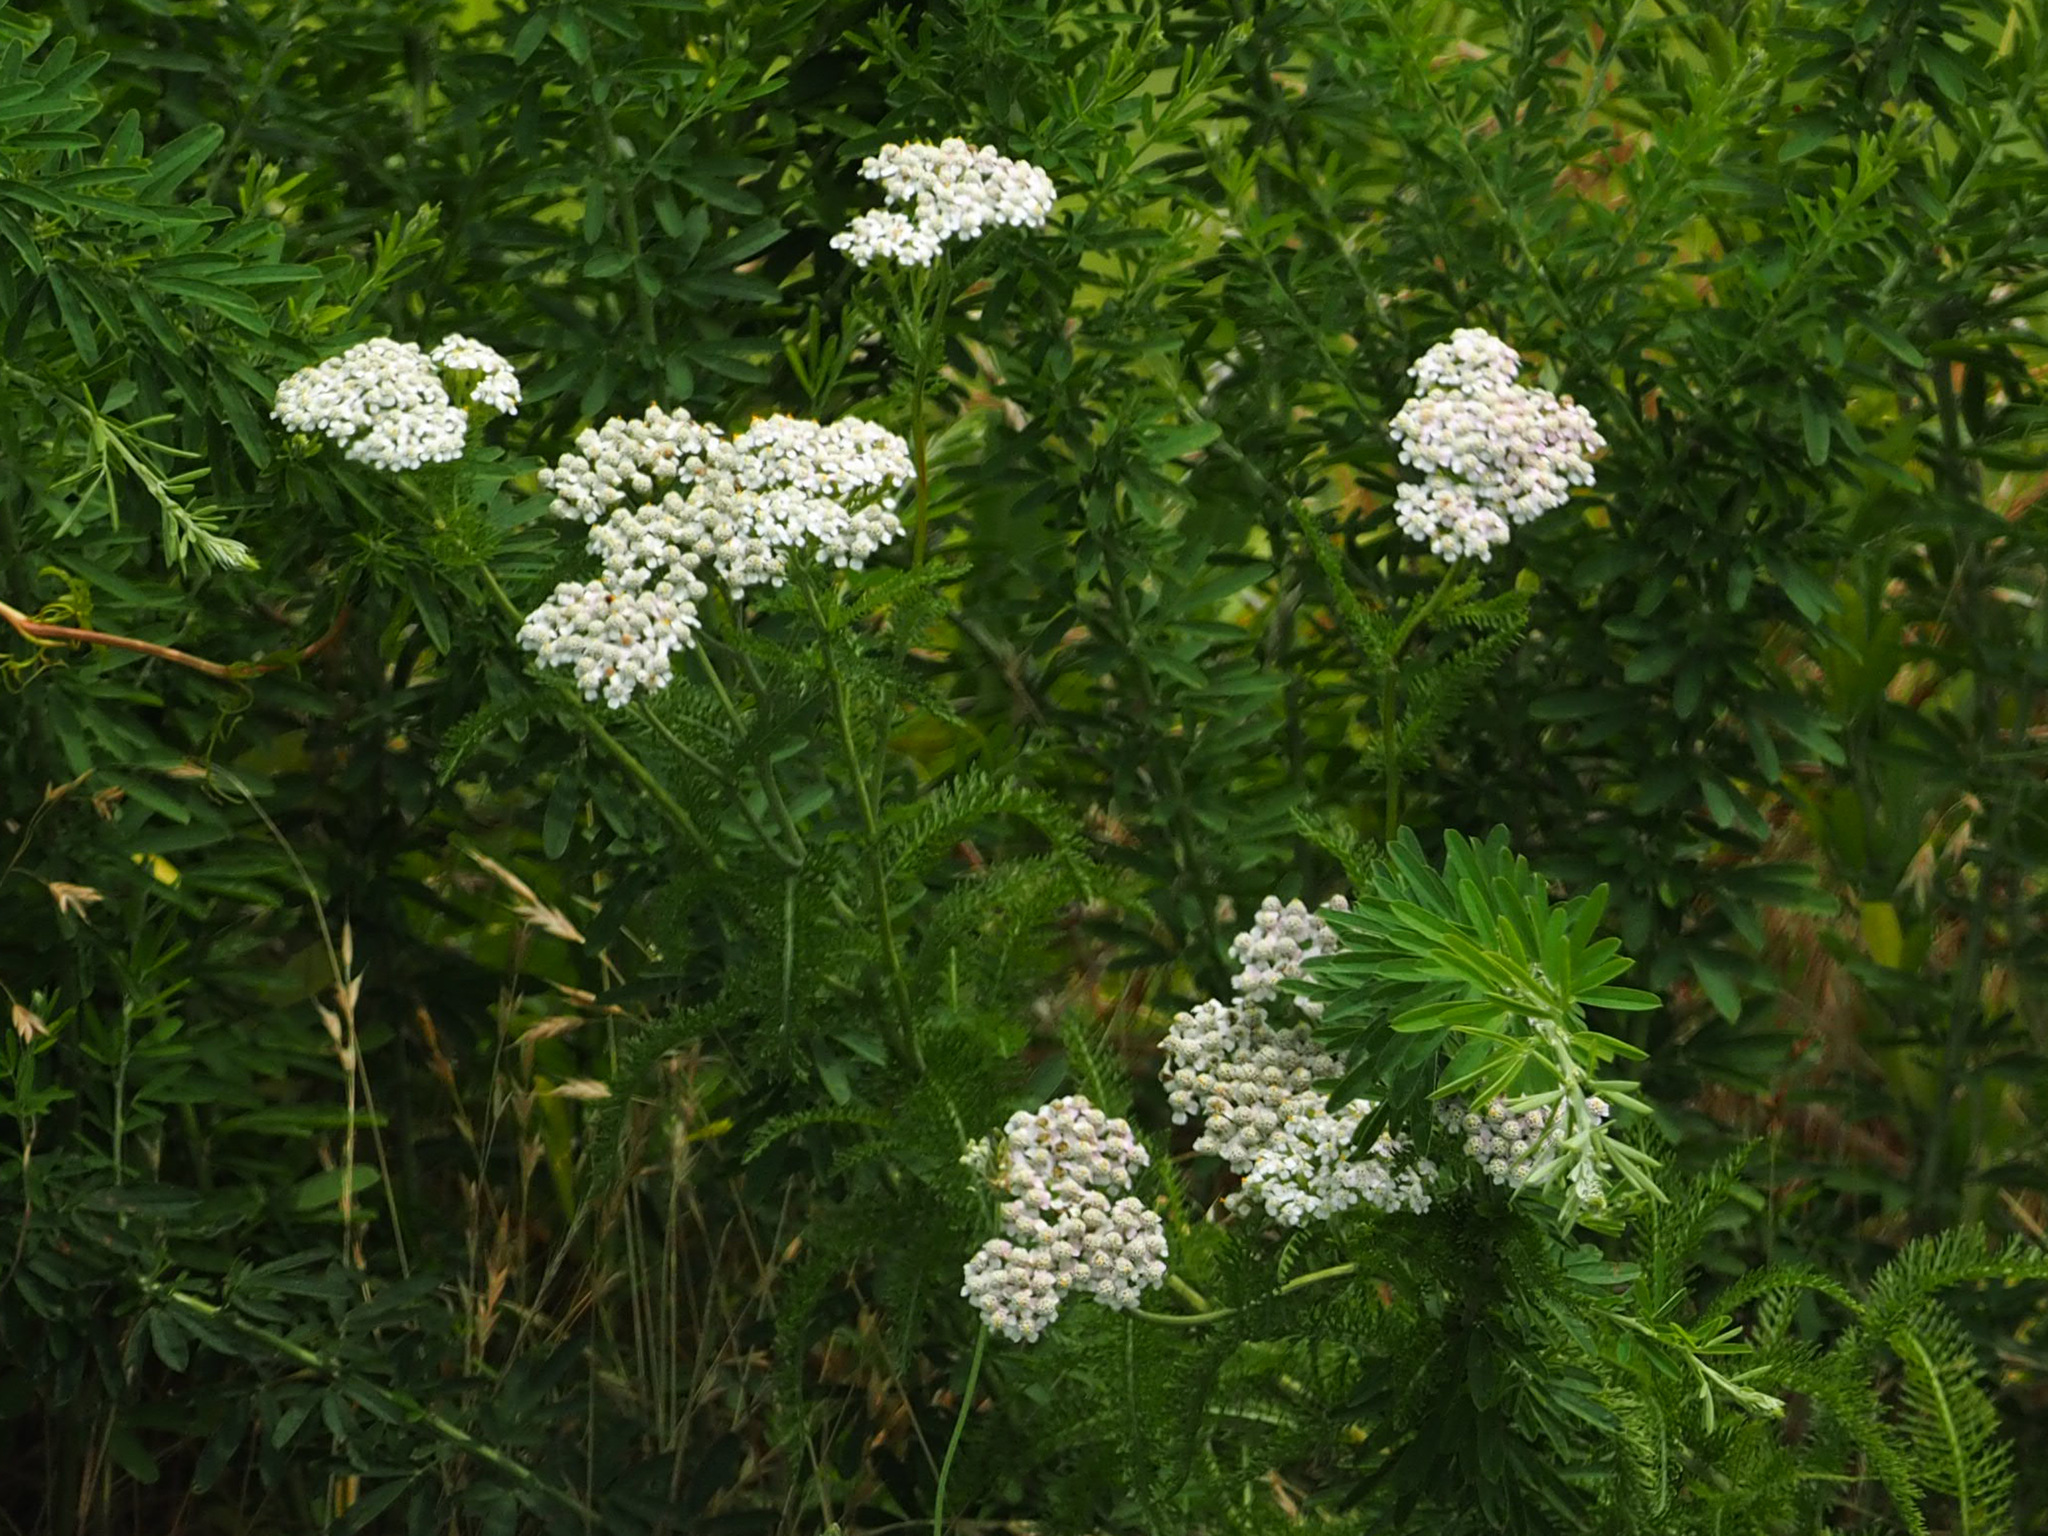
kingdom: Plantae
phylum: Tracheophyta
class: Magnoliopsida
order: Asterales
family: Asteraceae
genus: Achillea
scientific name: Achillea millefolium
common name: Yarrow
